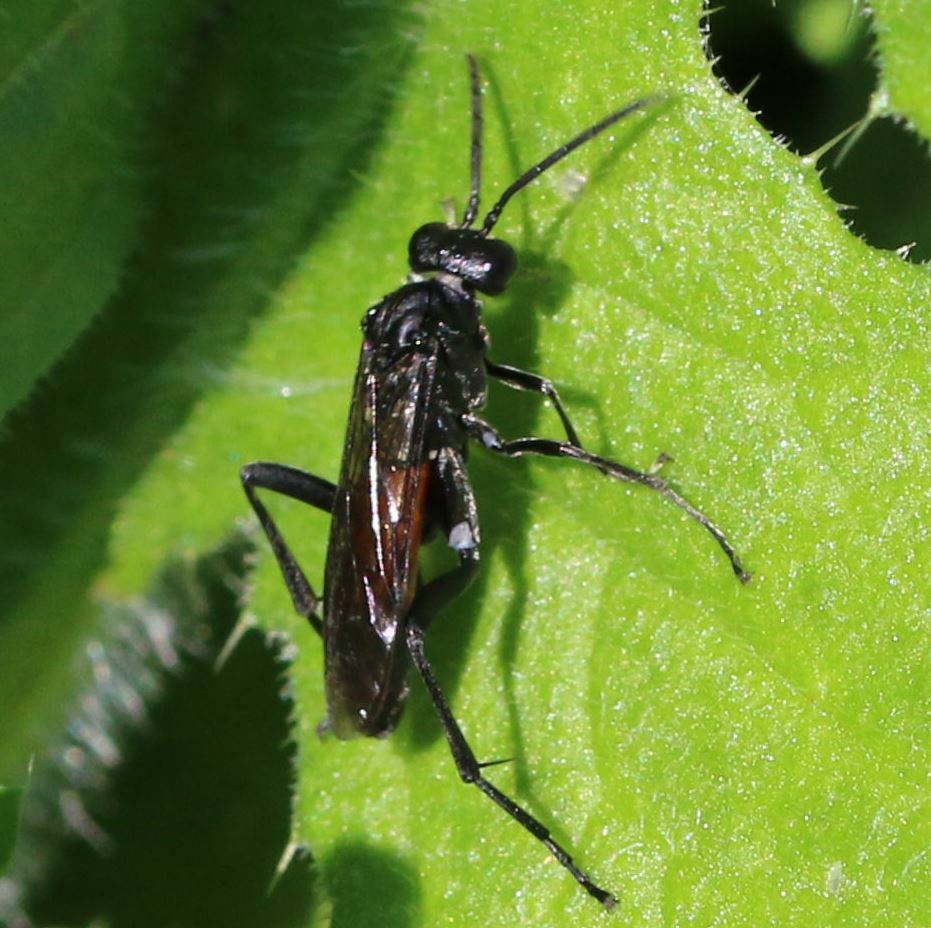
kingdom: Animalia
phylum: Arthropoda
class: Insecta
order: Hymenoptera
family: Tenthredinidae
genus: Macrophya
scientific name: Macrophya annulata
